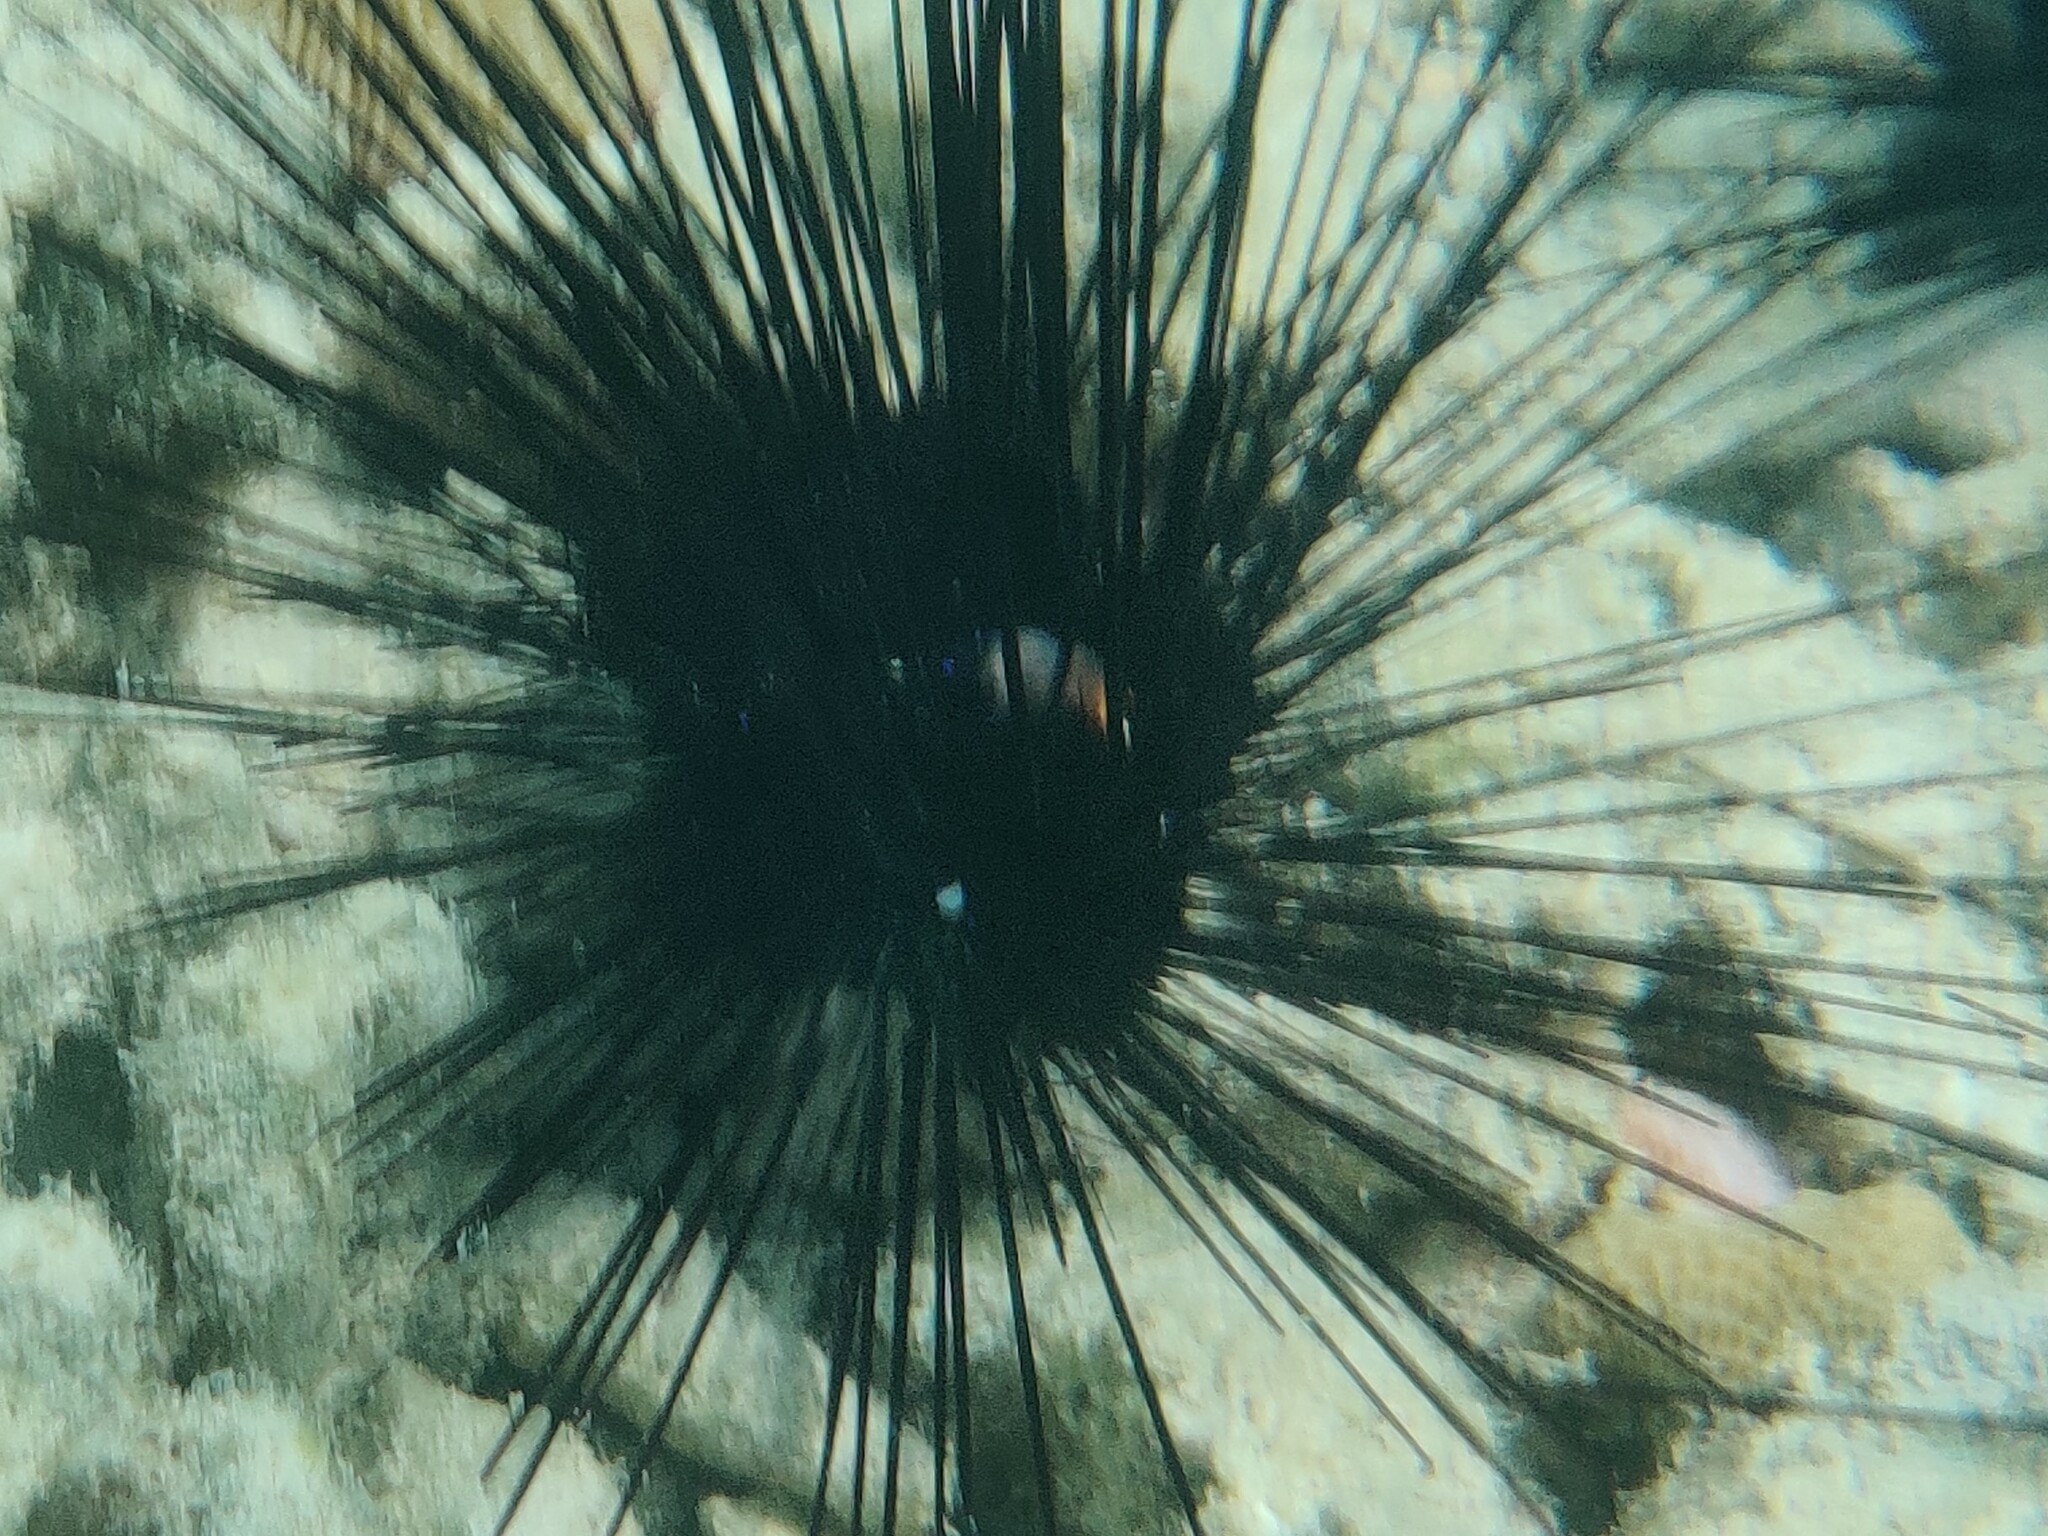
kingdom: Animalia
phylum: Echinodermata
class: Echinoidea
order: Diadematoida
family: Diadematidae
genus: Diadema
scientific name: Diadema setosum
